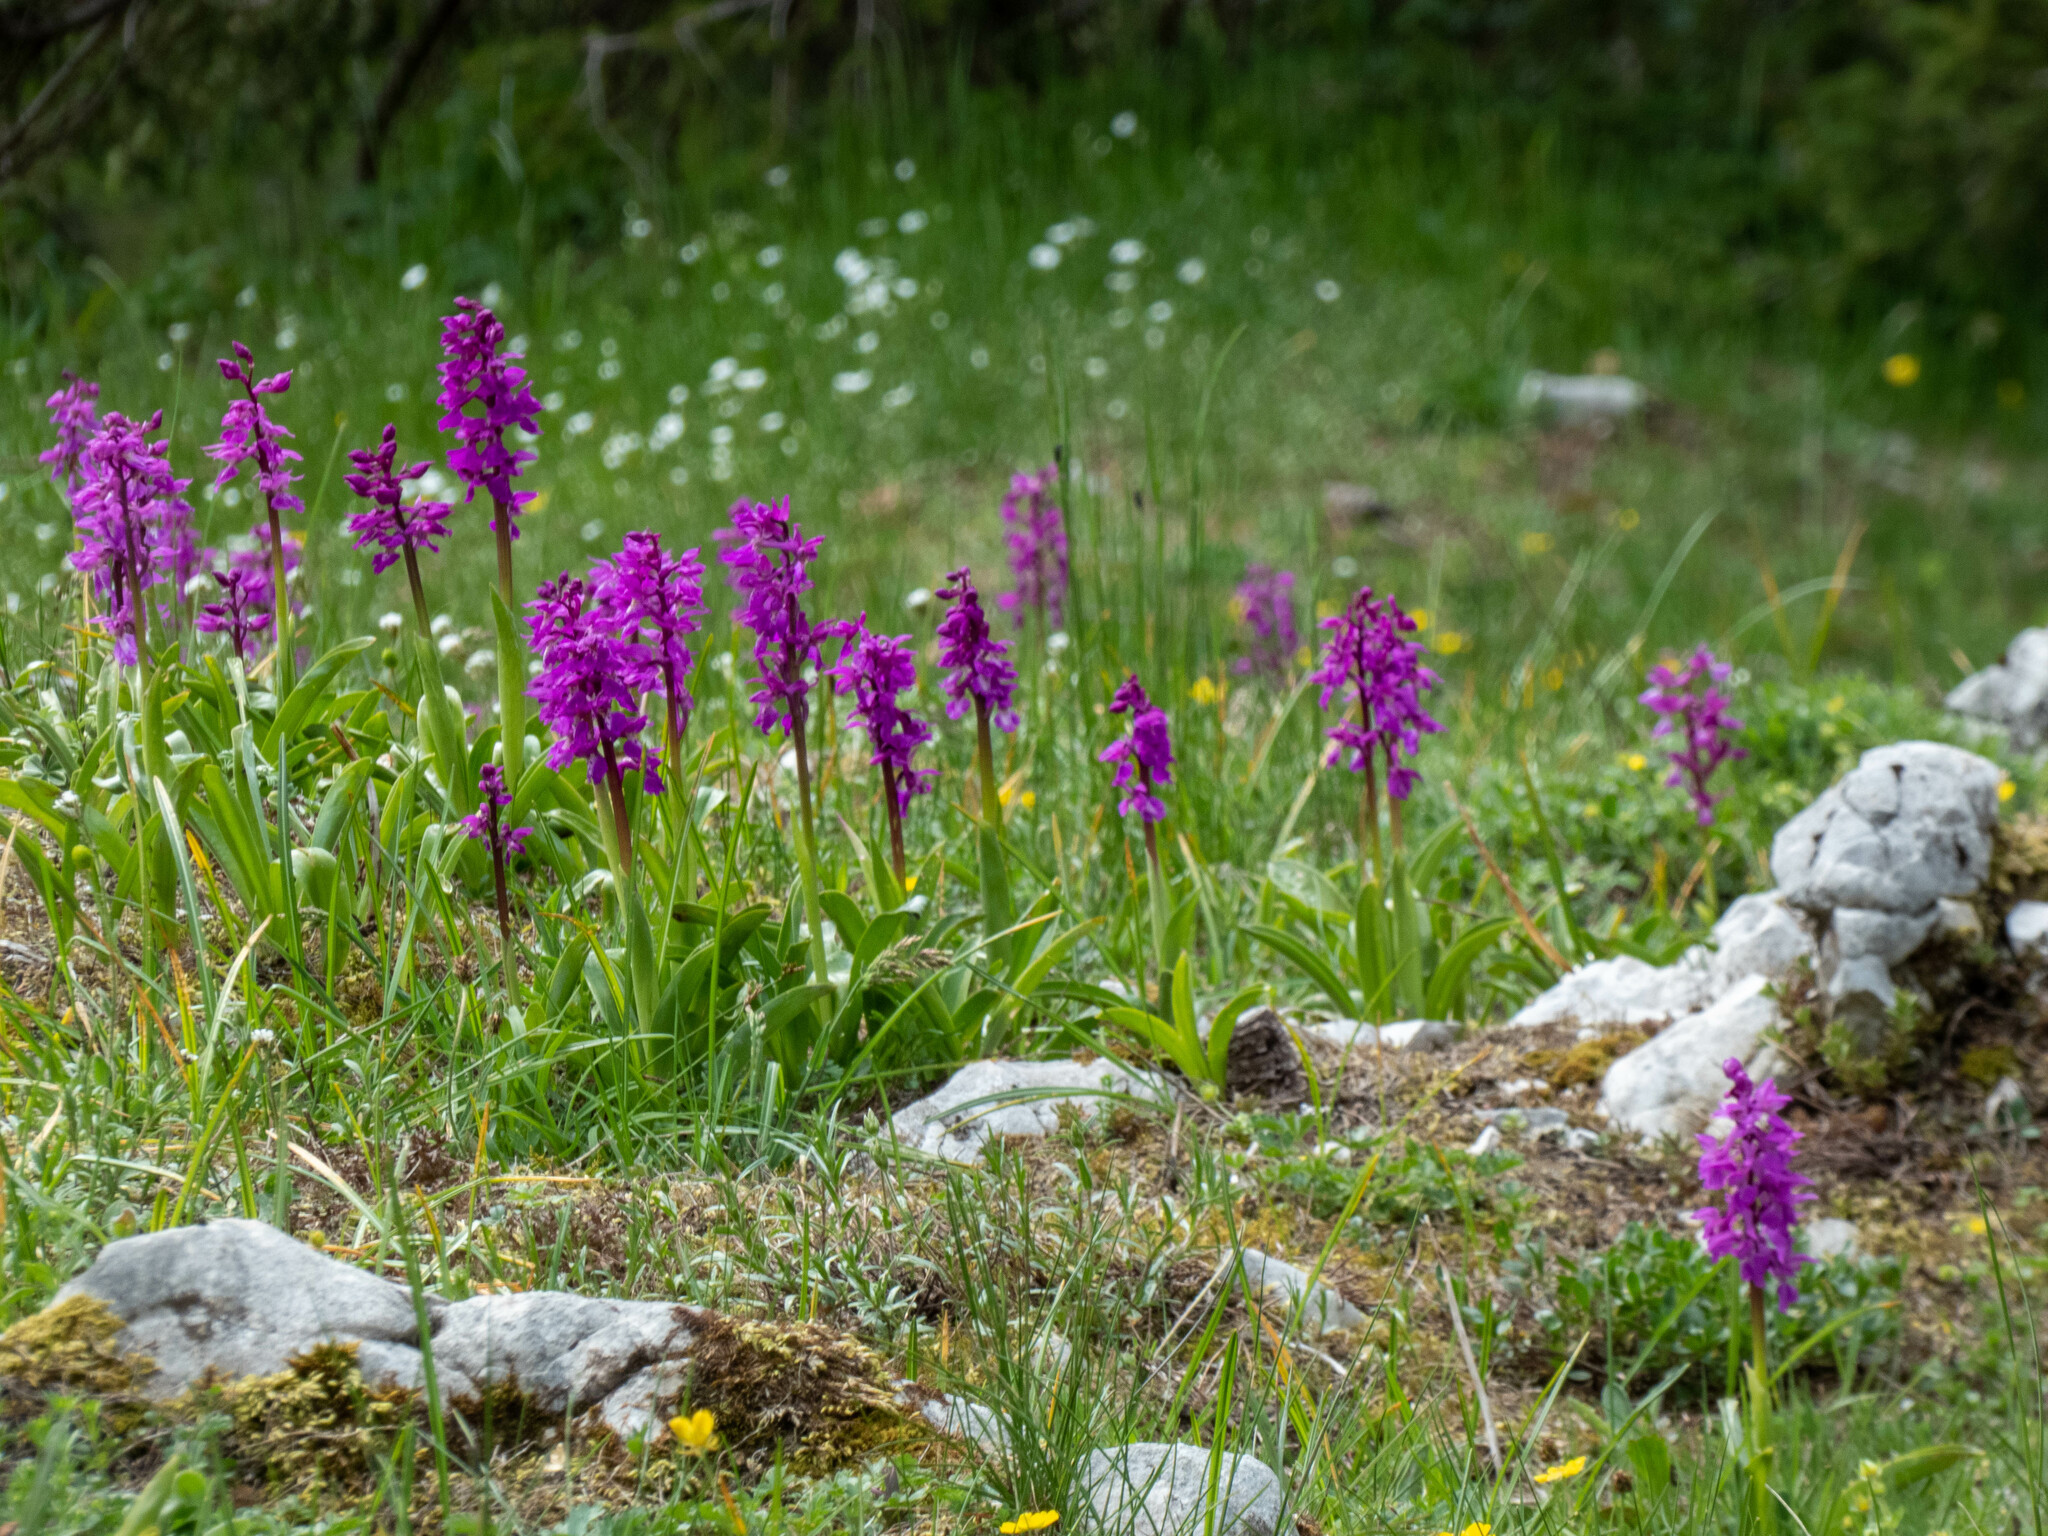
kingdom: Plantae
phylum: Tracheophyta
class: Liliopsida
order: Asparagales
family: Orchidaceae
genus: Orchis
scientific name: Orchis mascula
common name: Early-purple orchid
